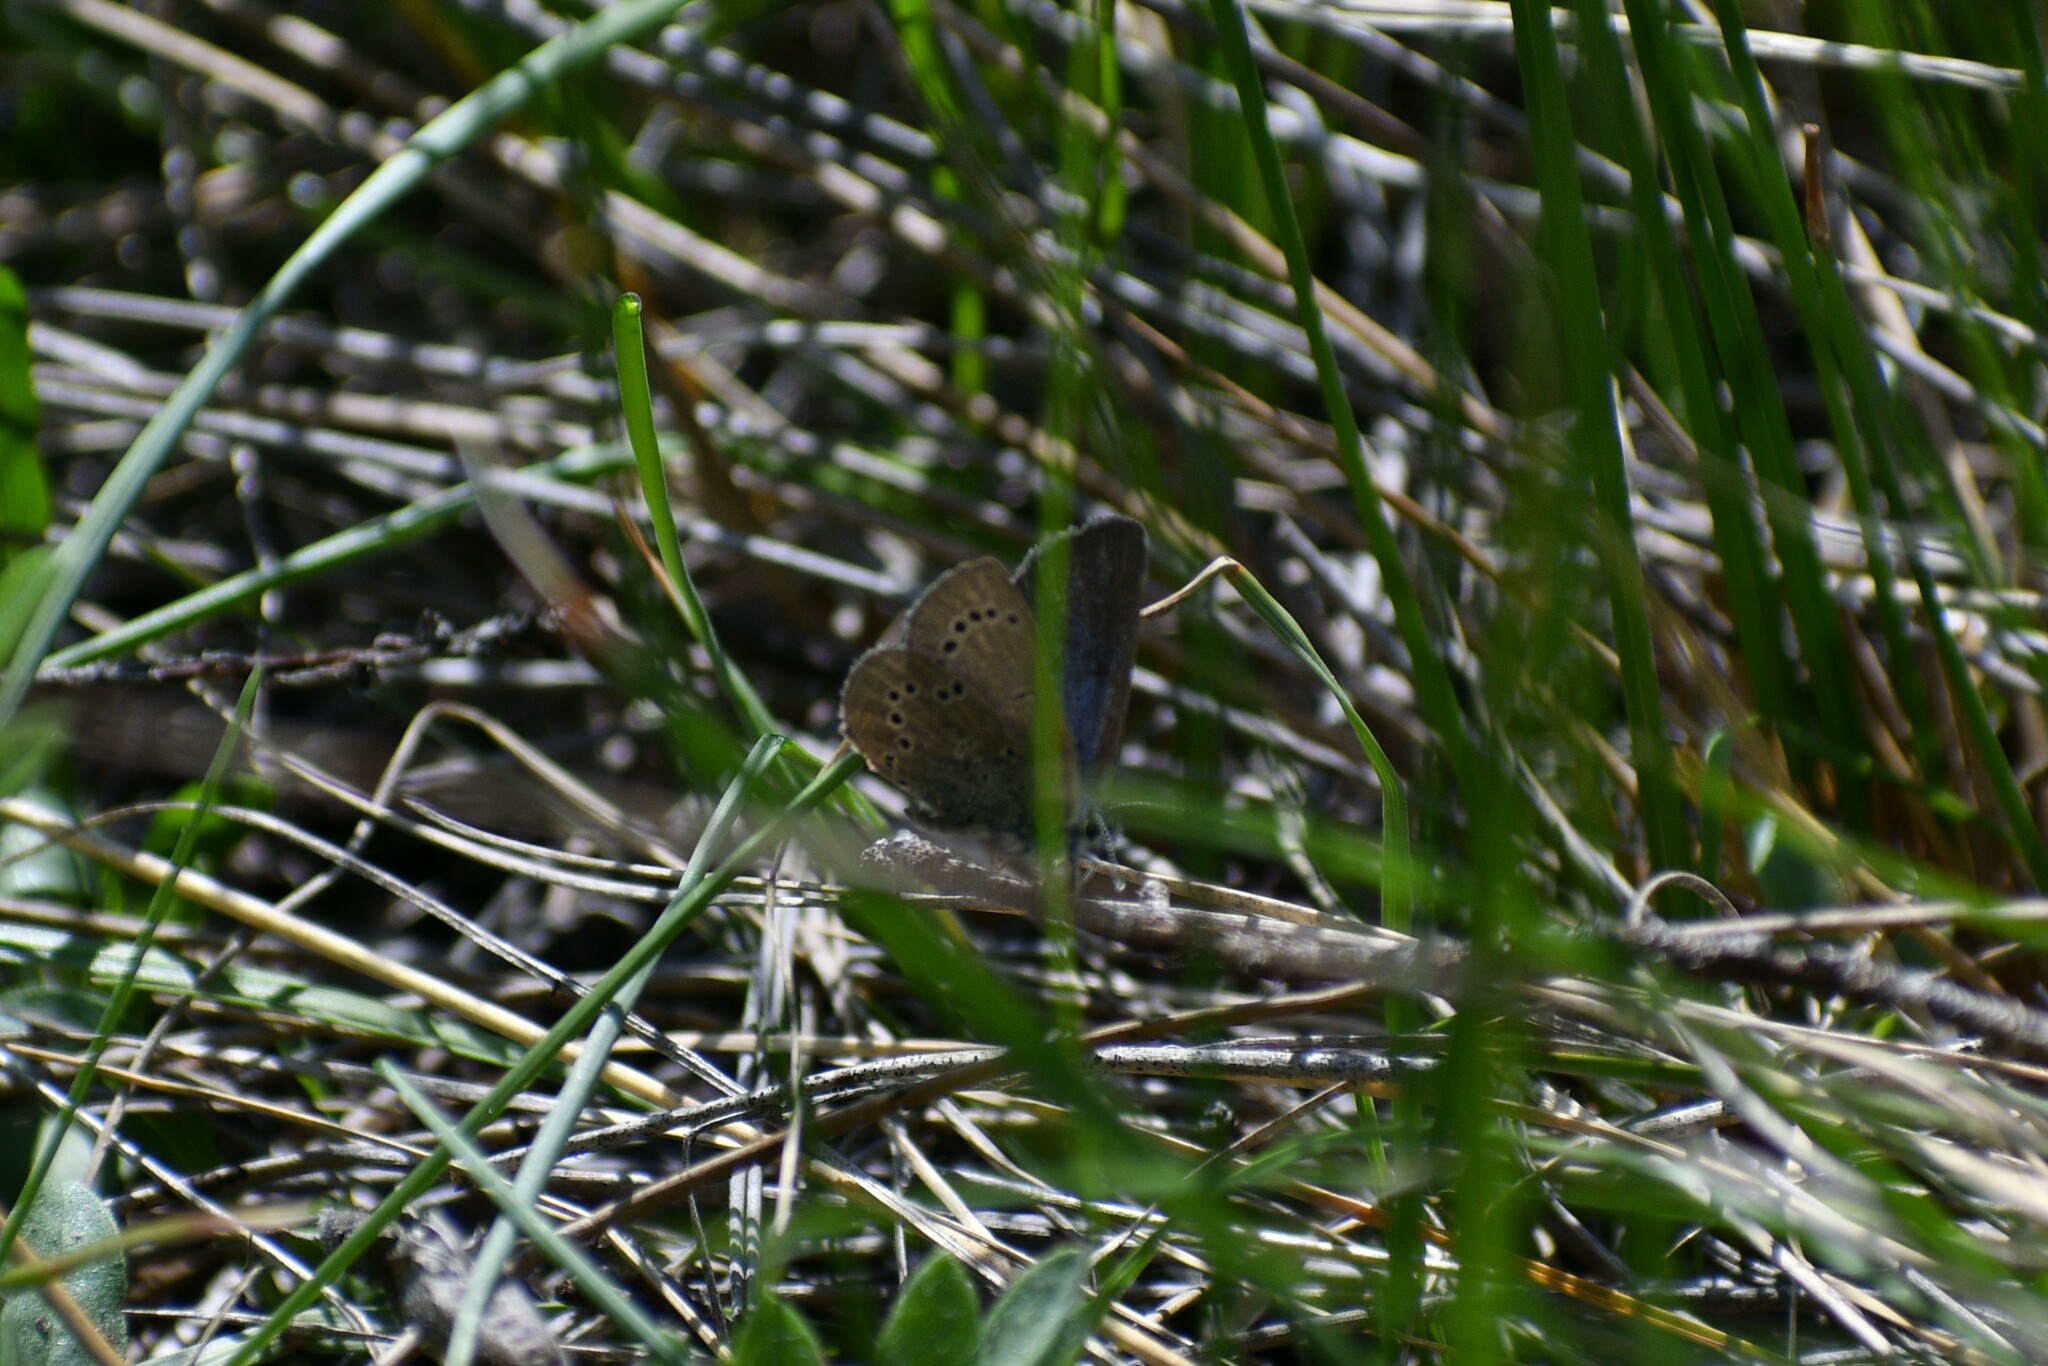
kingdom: Animalia
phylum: Arthropoda
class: Insecta
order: Lepidoptera
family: Lycaenidae
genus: Glaucopsyche
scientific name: Glaucopsyche lygdamus
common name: Silvery blue
